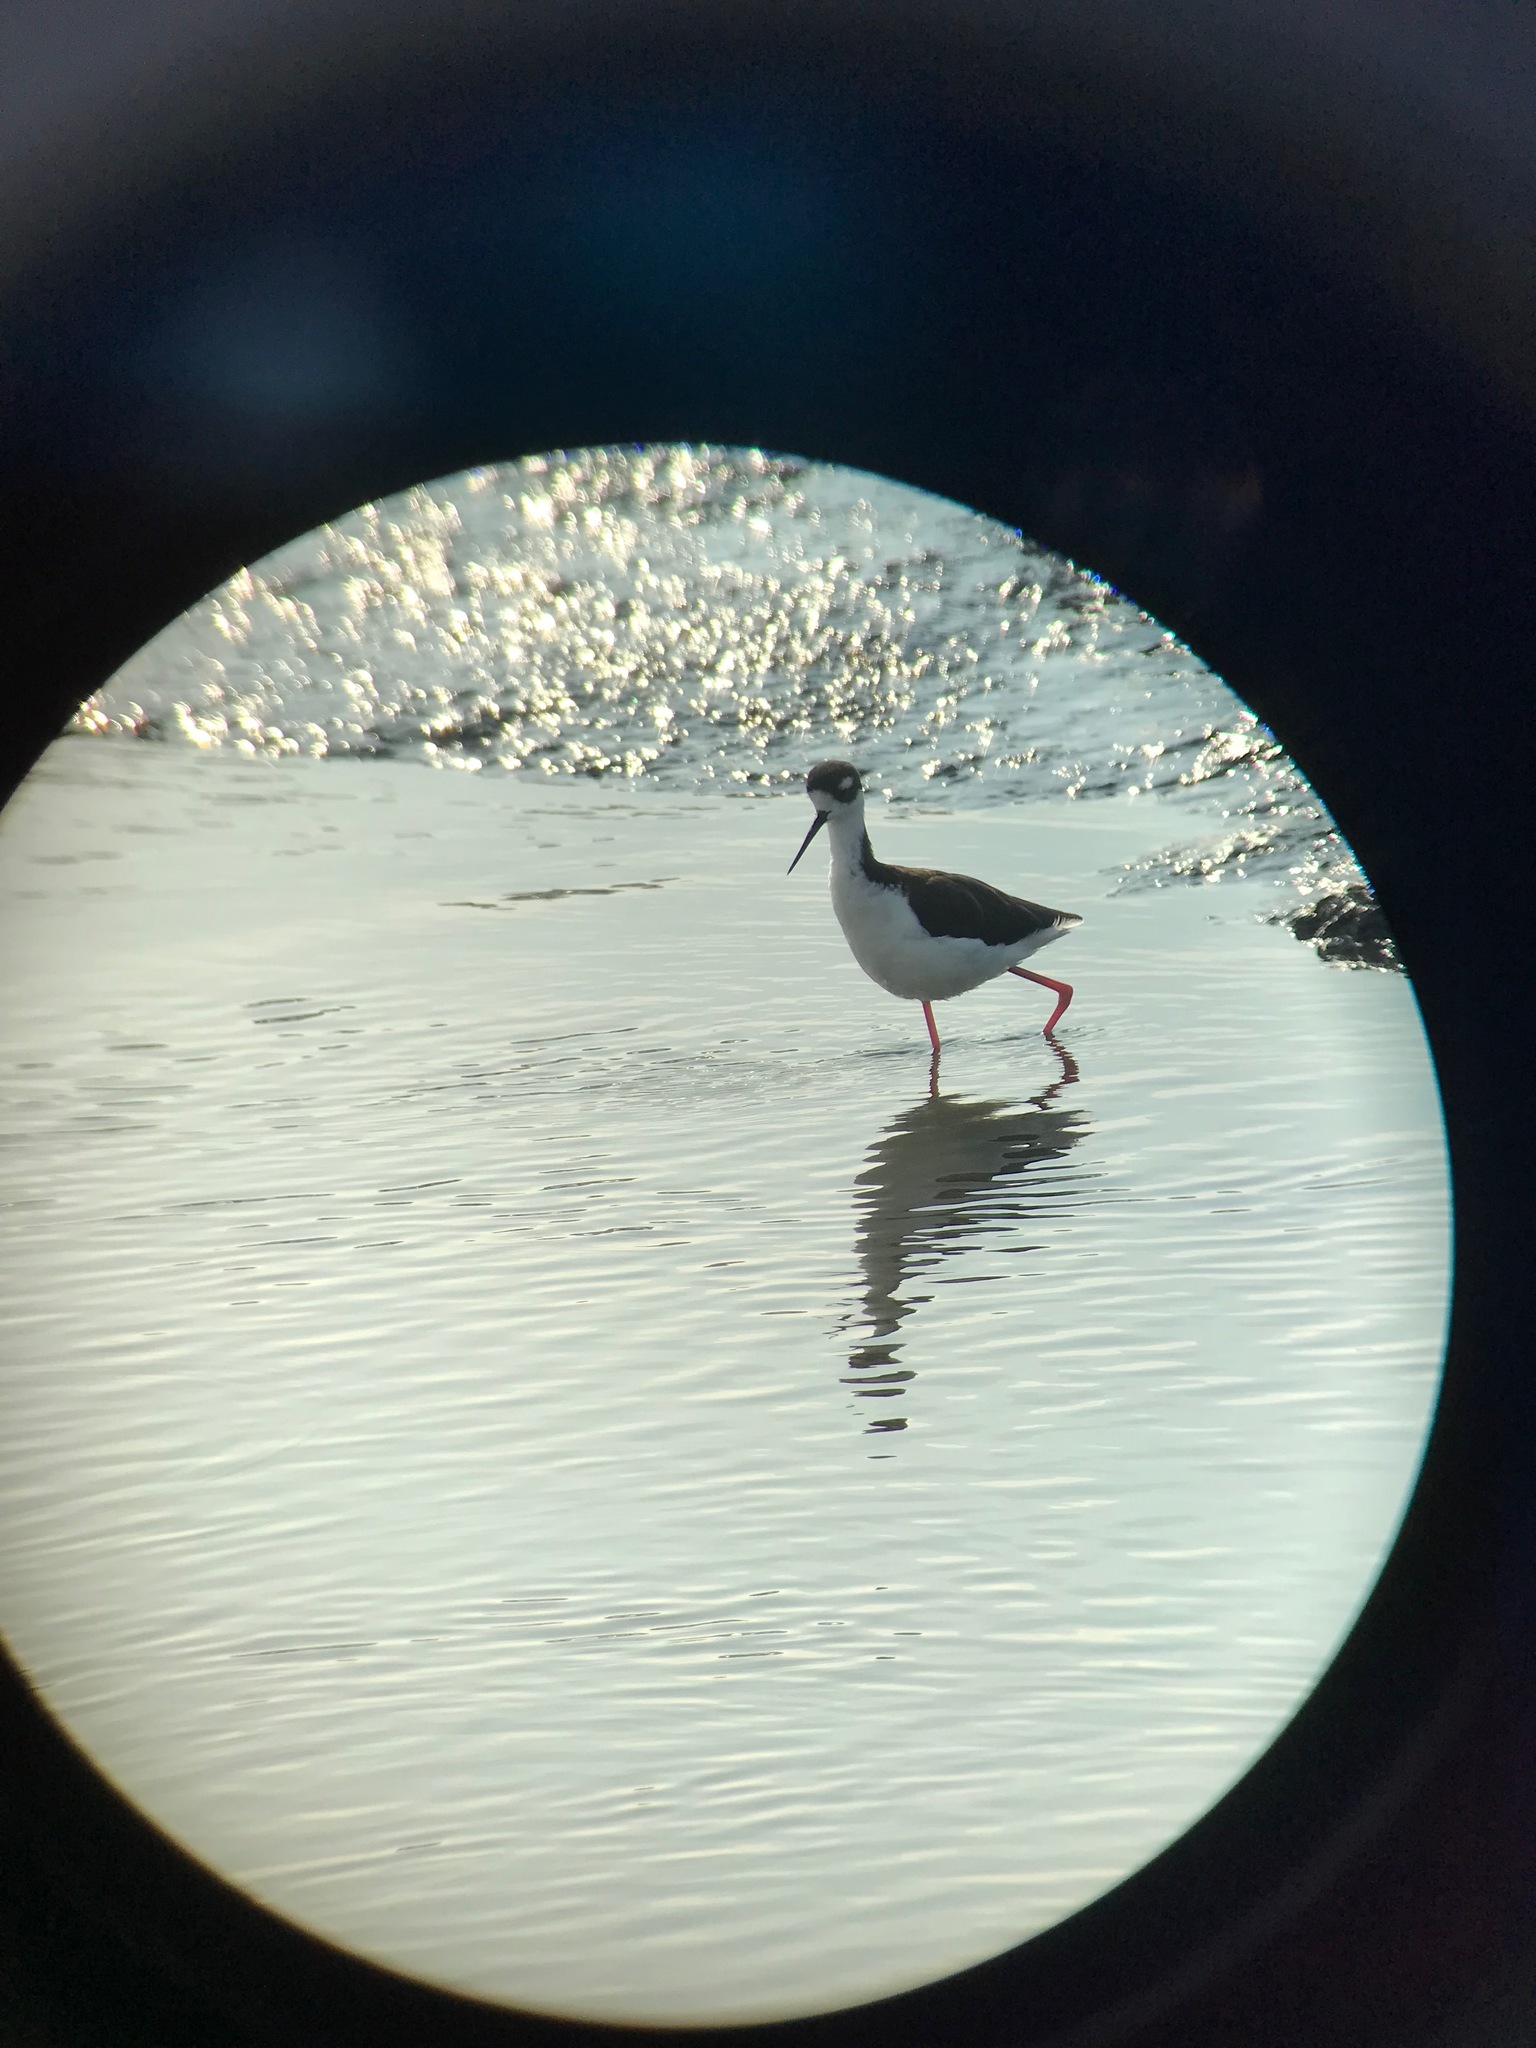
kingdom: Animalia
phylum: Chordata
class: Aves
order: Charadriiformes
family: Recurvirostridae
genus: Himantopus
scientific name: Himantopus mexicanus
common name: Black-necked stilt
